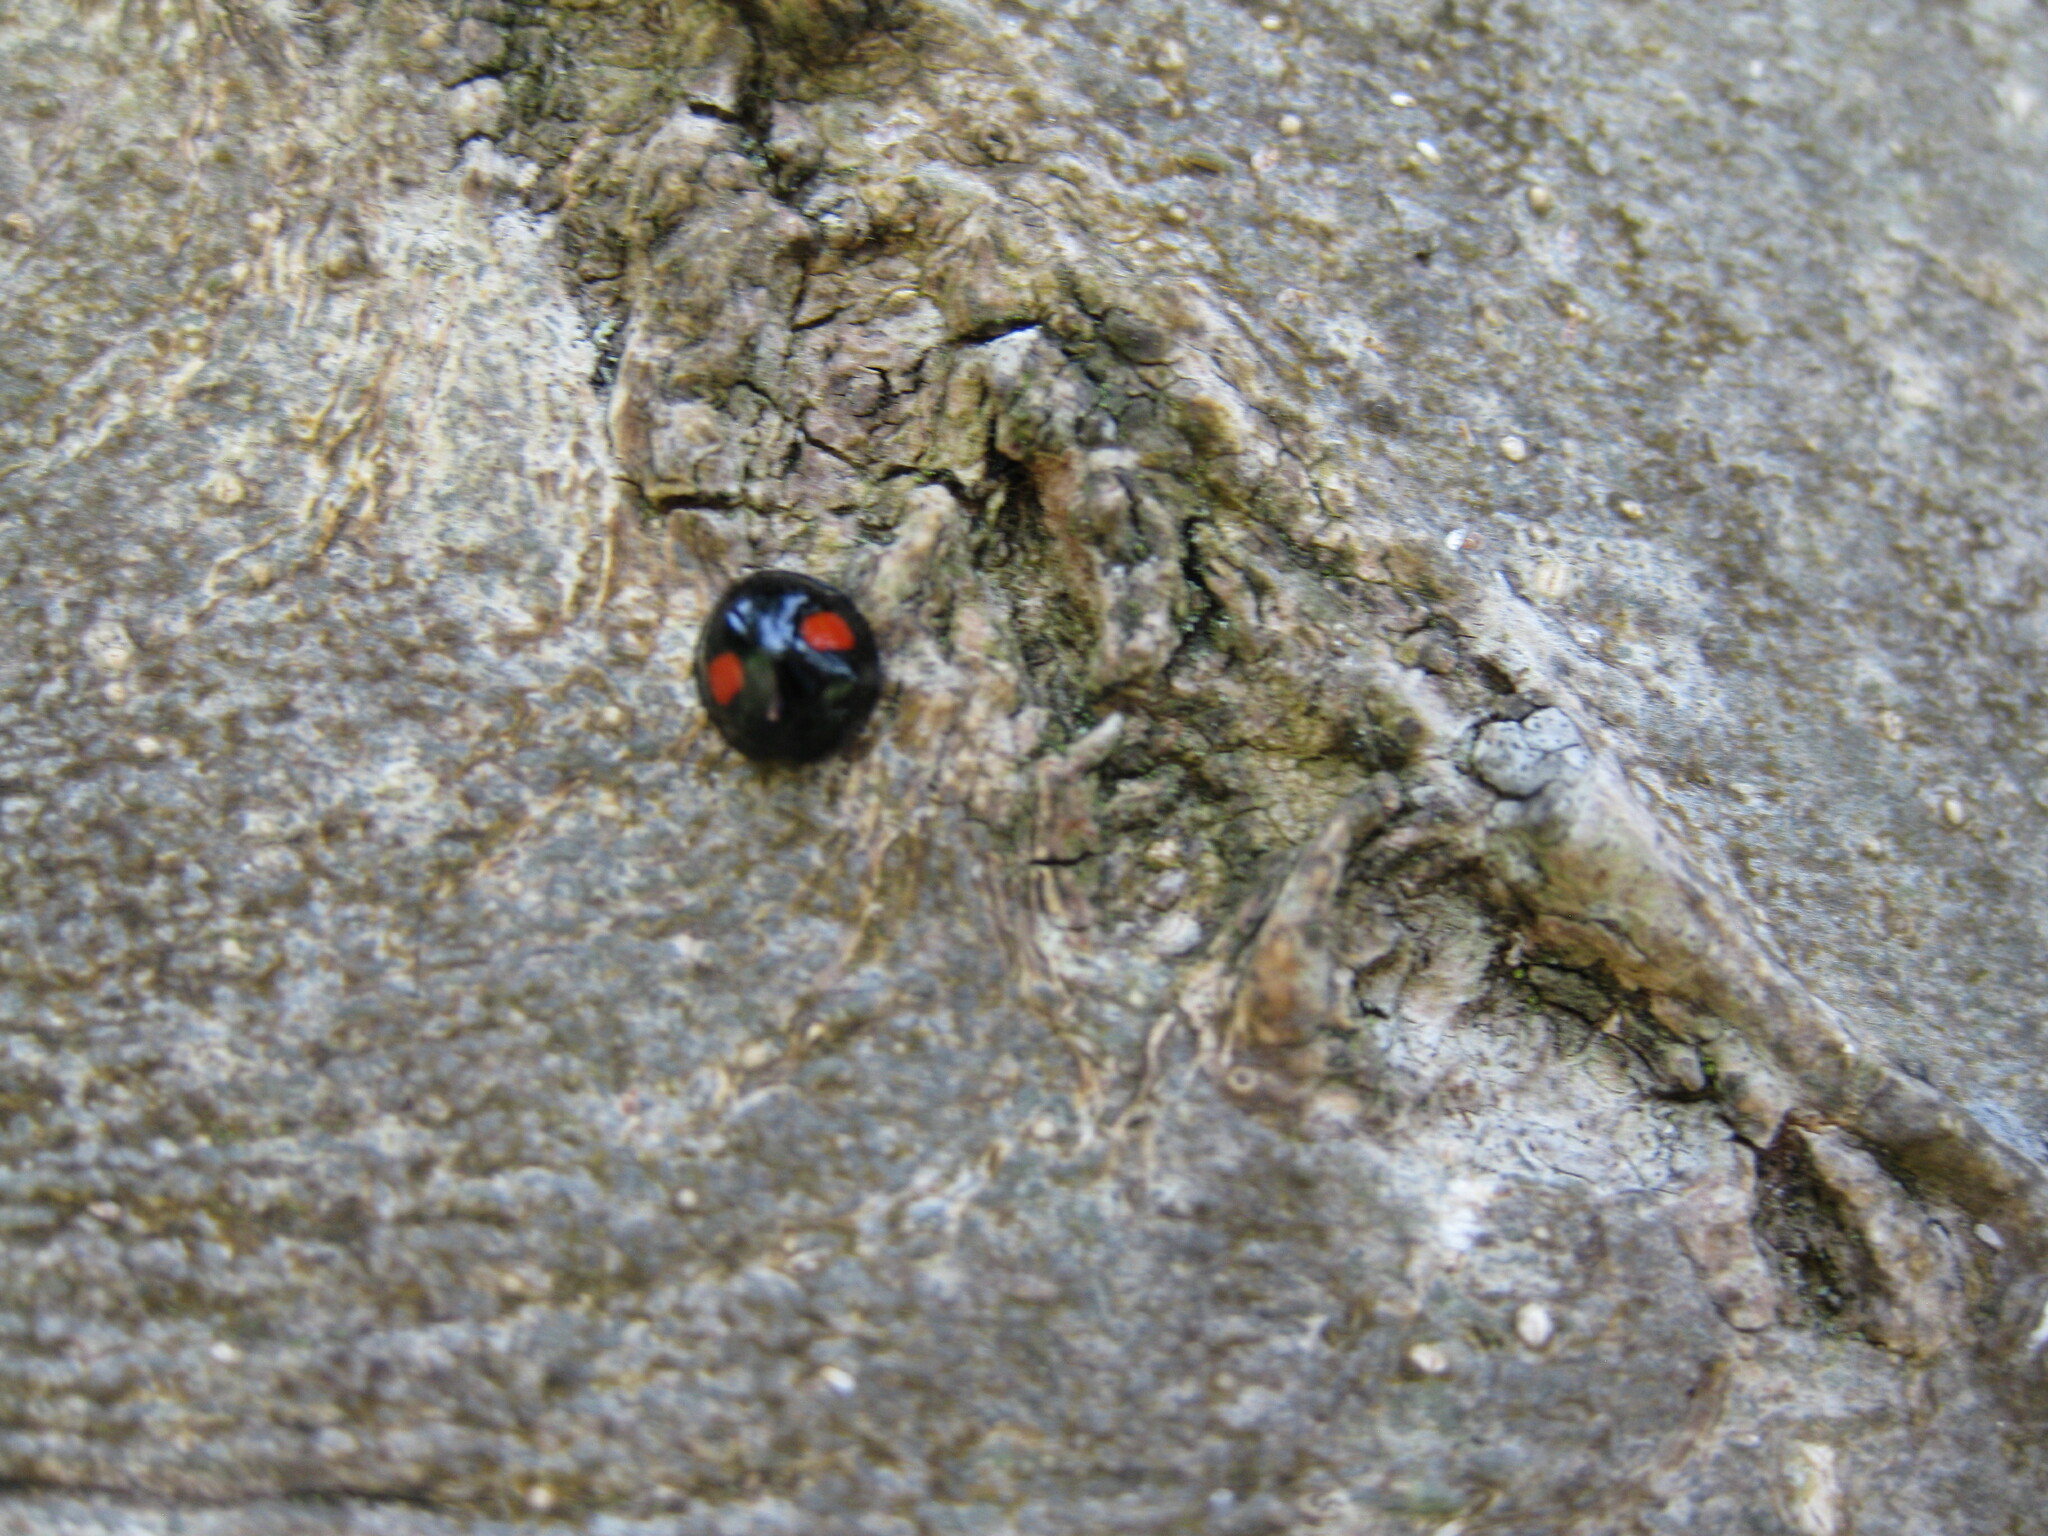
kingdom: Animalia
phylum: Arthropoda
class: Insecta
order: Coleoptera
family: Coccinellidae
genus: Chilocorus
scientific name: Chilocorus renipustulatus
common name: Kidney-spot ladybird
